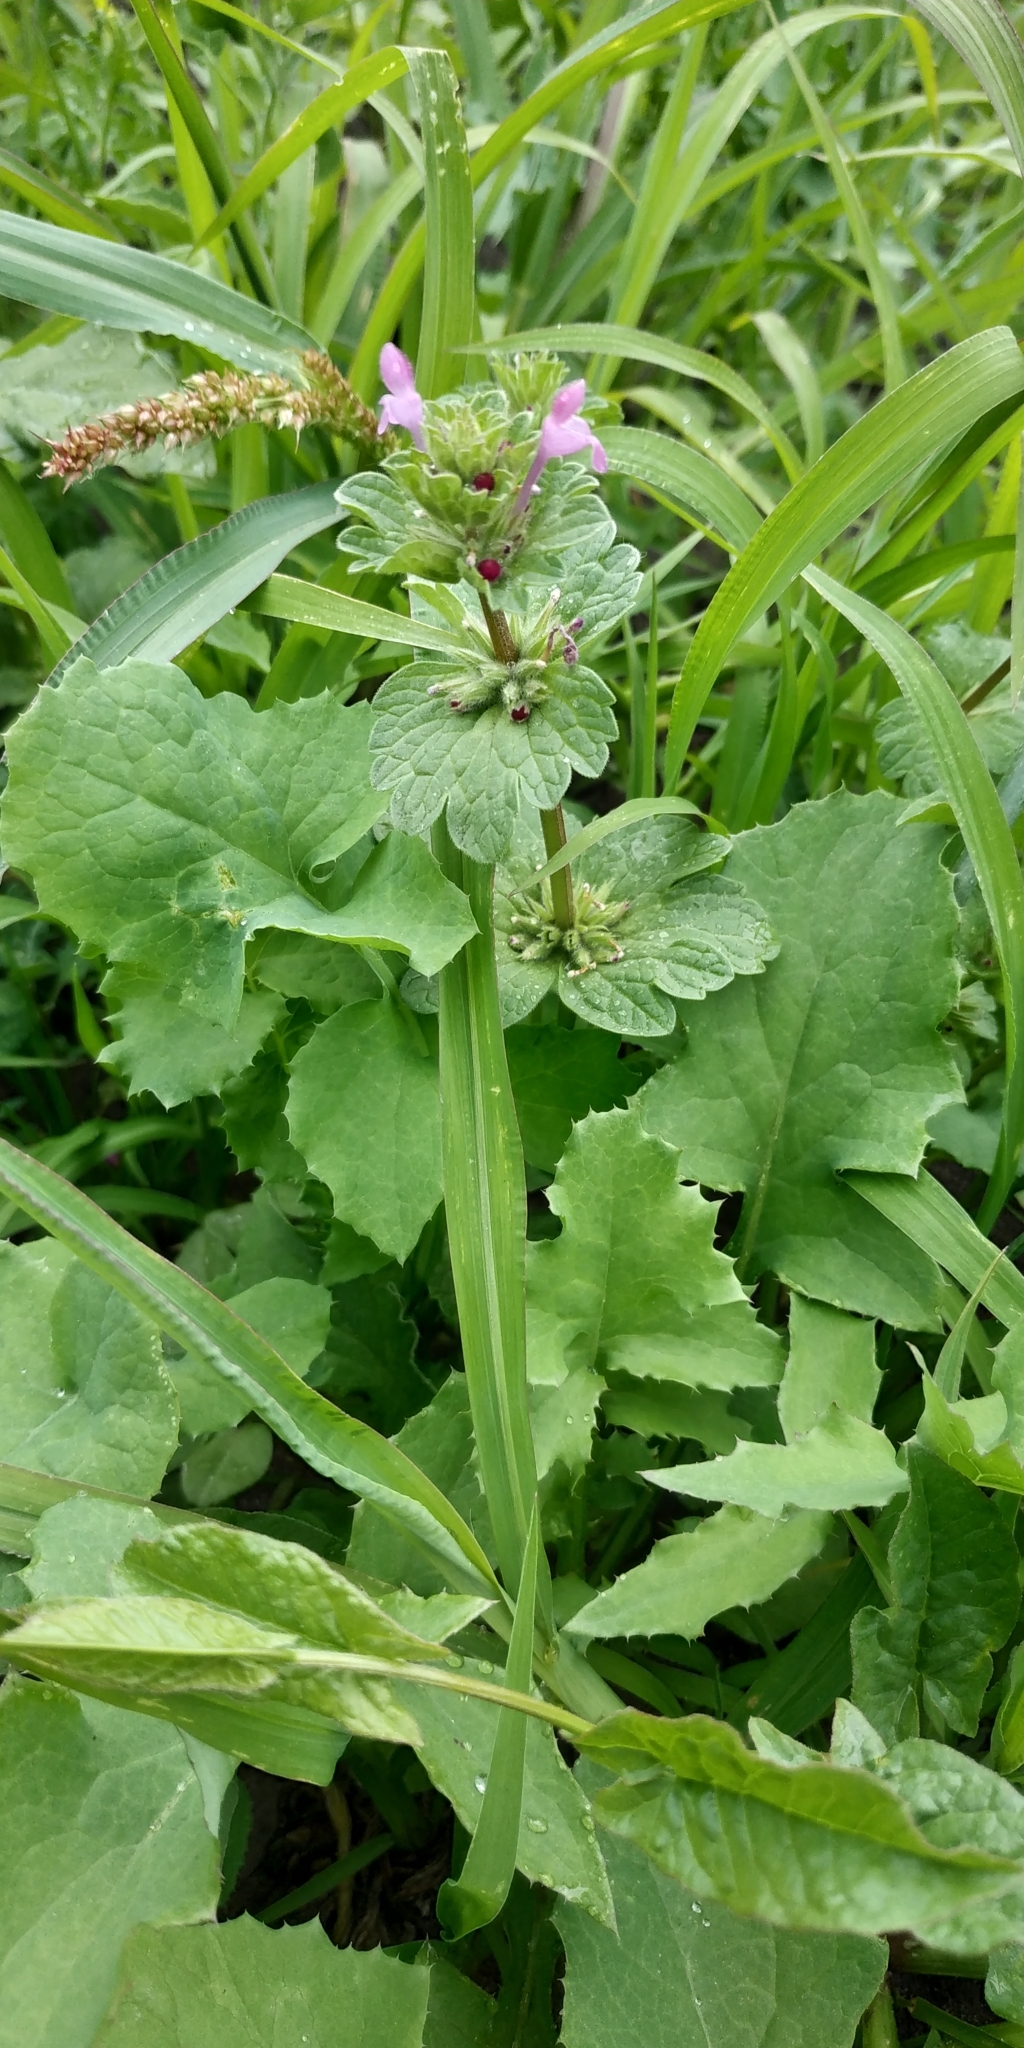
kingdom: Plantae
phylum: Tracheophyta
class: Magnoliopsida
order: Lamiales
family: Lamiaceae
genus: Lamium
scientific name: Lamium amplexicaule
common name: Henbit dead-nettle
